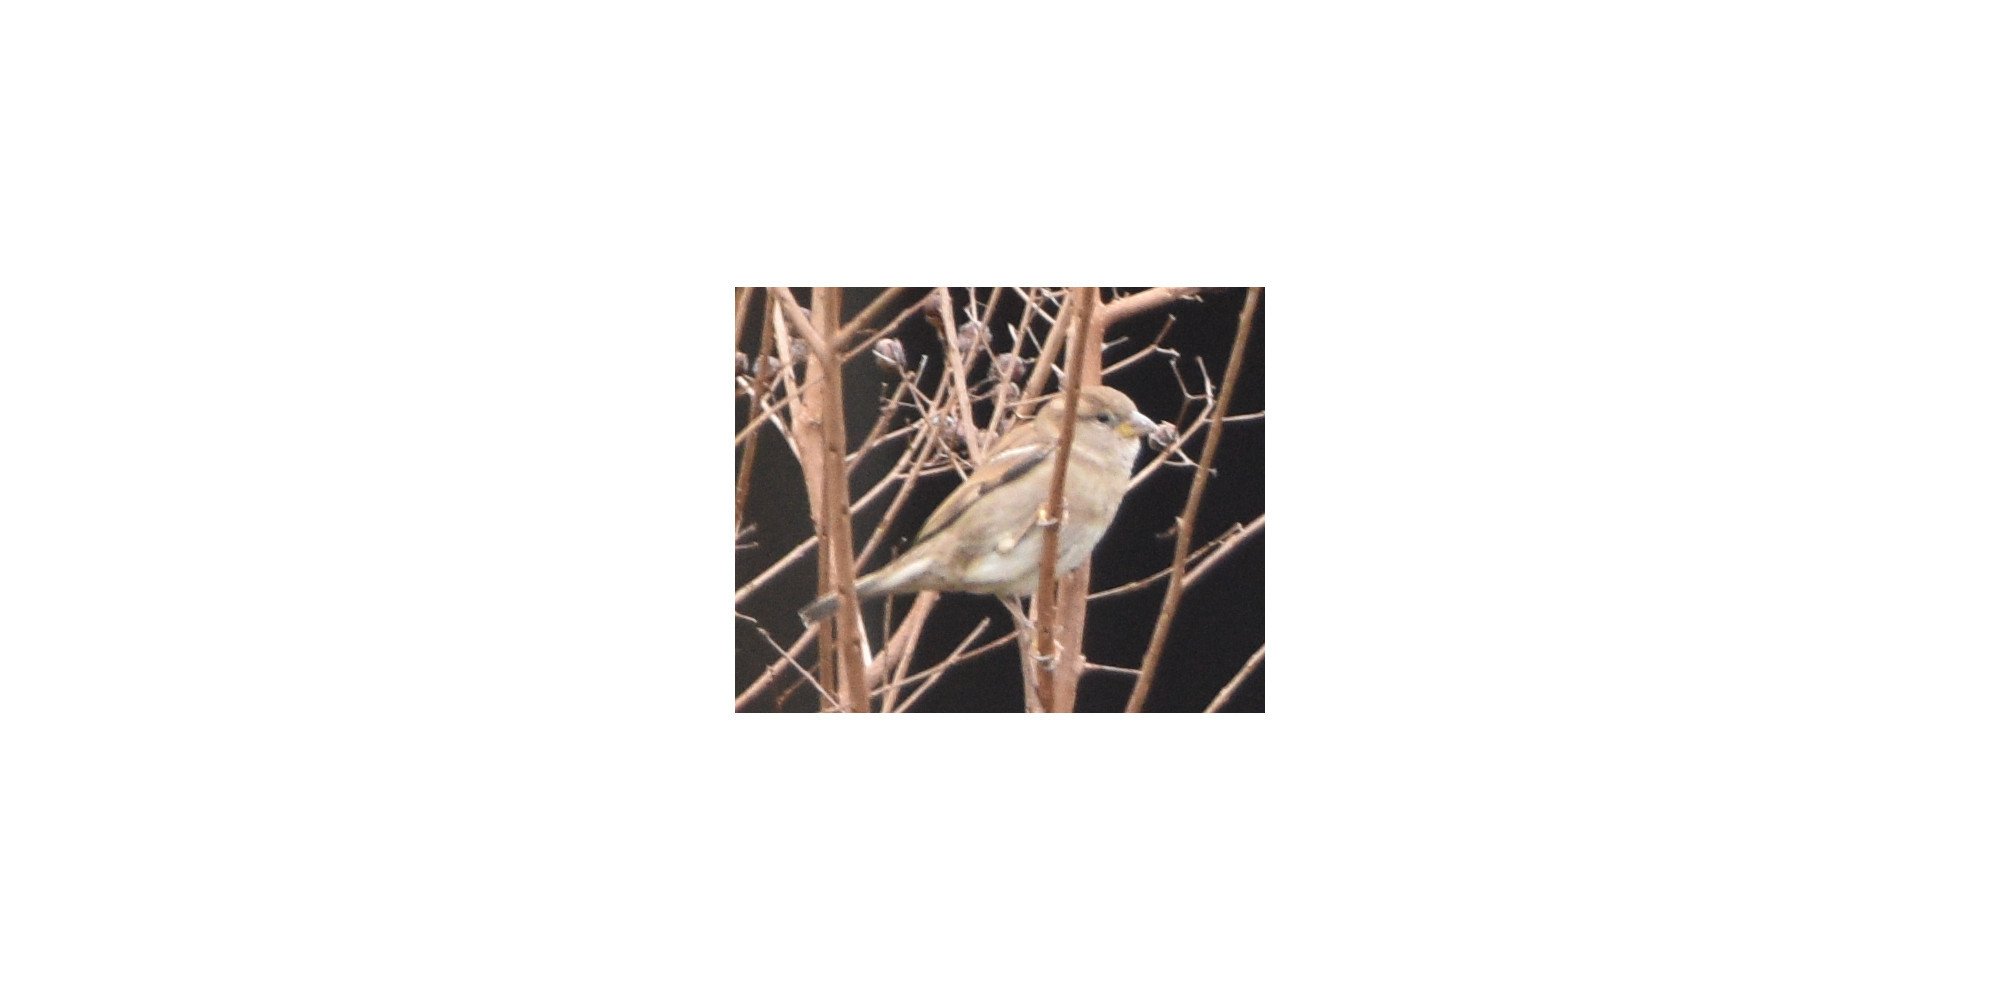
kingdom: Animalia
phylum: Chordata
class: Aves
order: Passeriformes
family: Passeridae
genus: Passer
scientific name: Passer domesticus
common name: House sparrow
